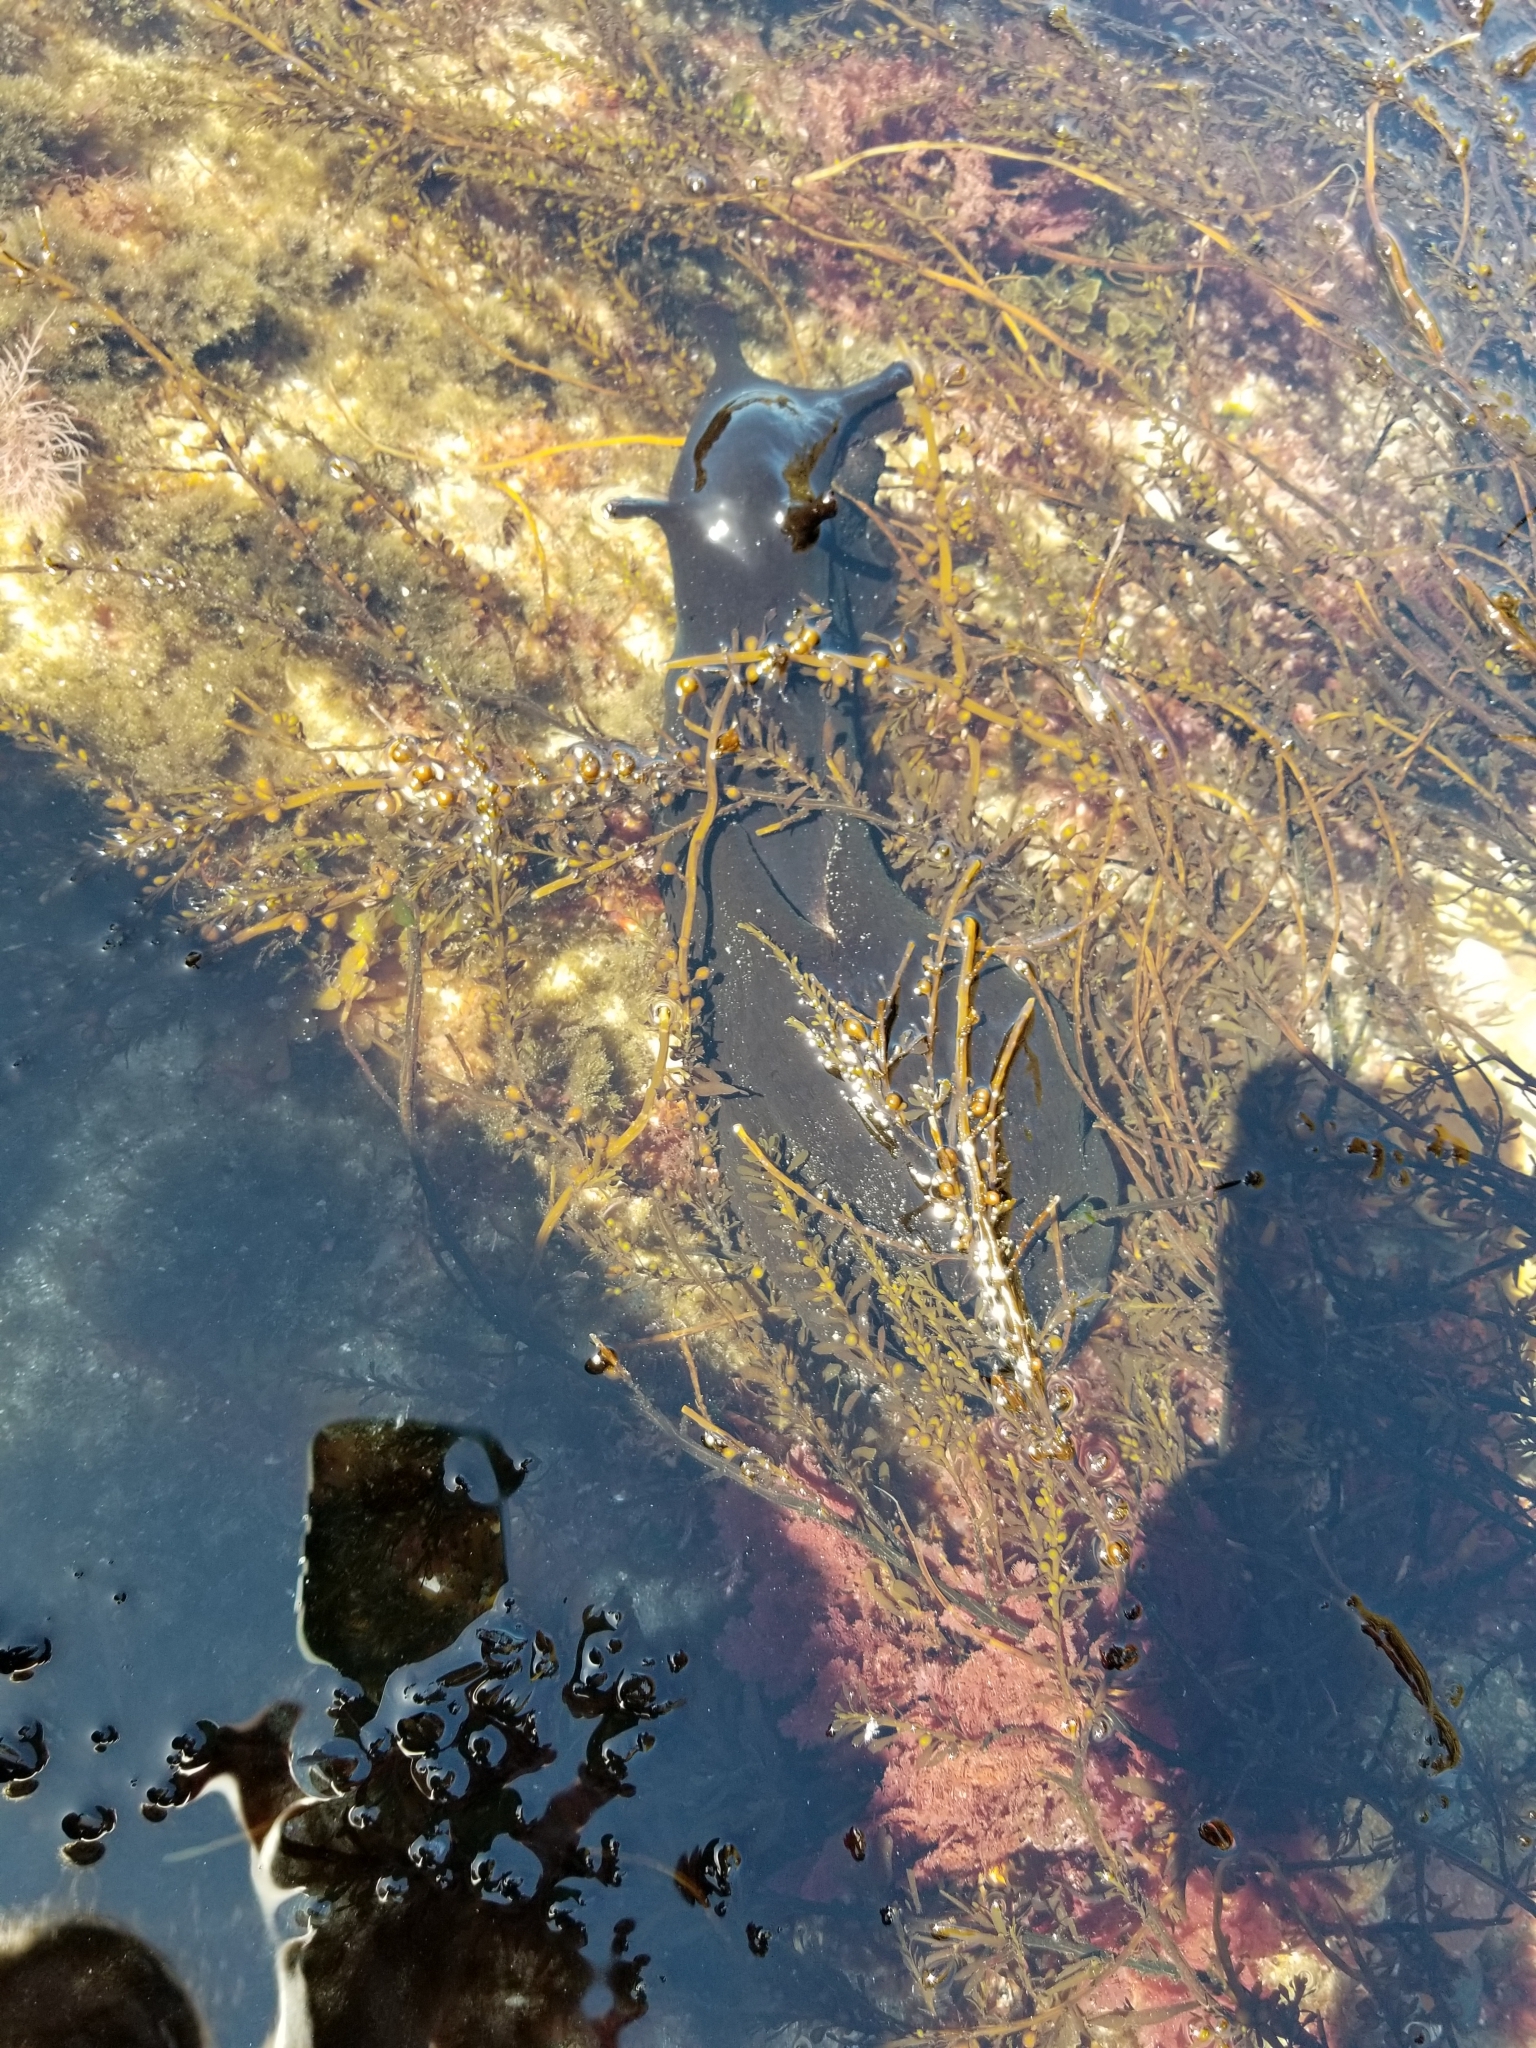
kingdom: Animalia
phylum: Mollusca
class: Gastropoda
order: Aplysiida
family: Aplysiidae
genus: Aplysia
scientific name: Aplysia vaccaria
